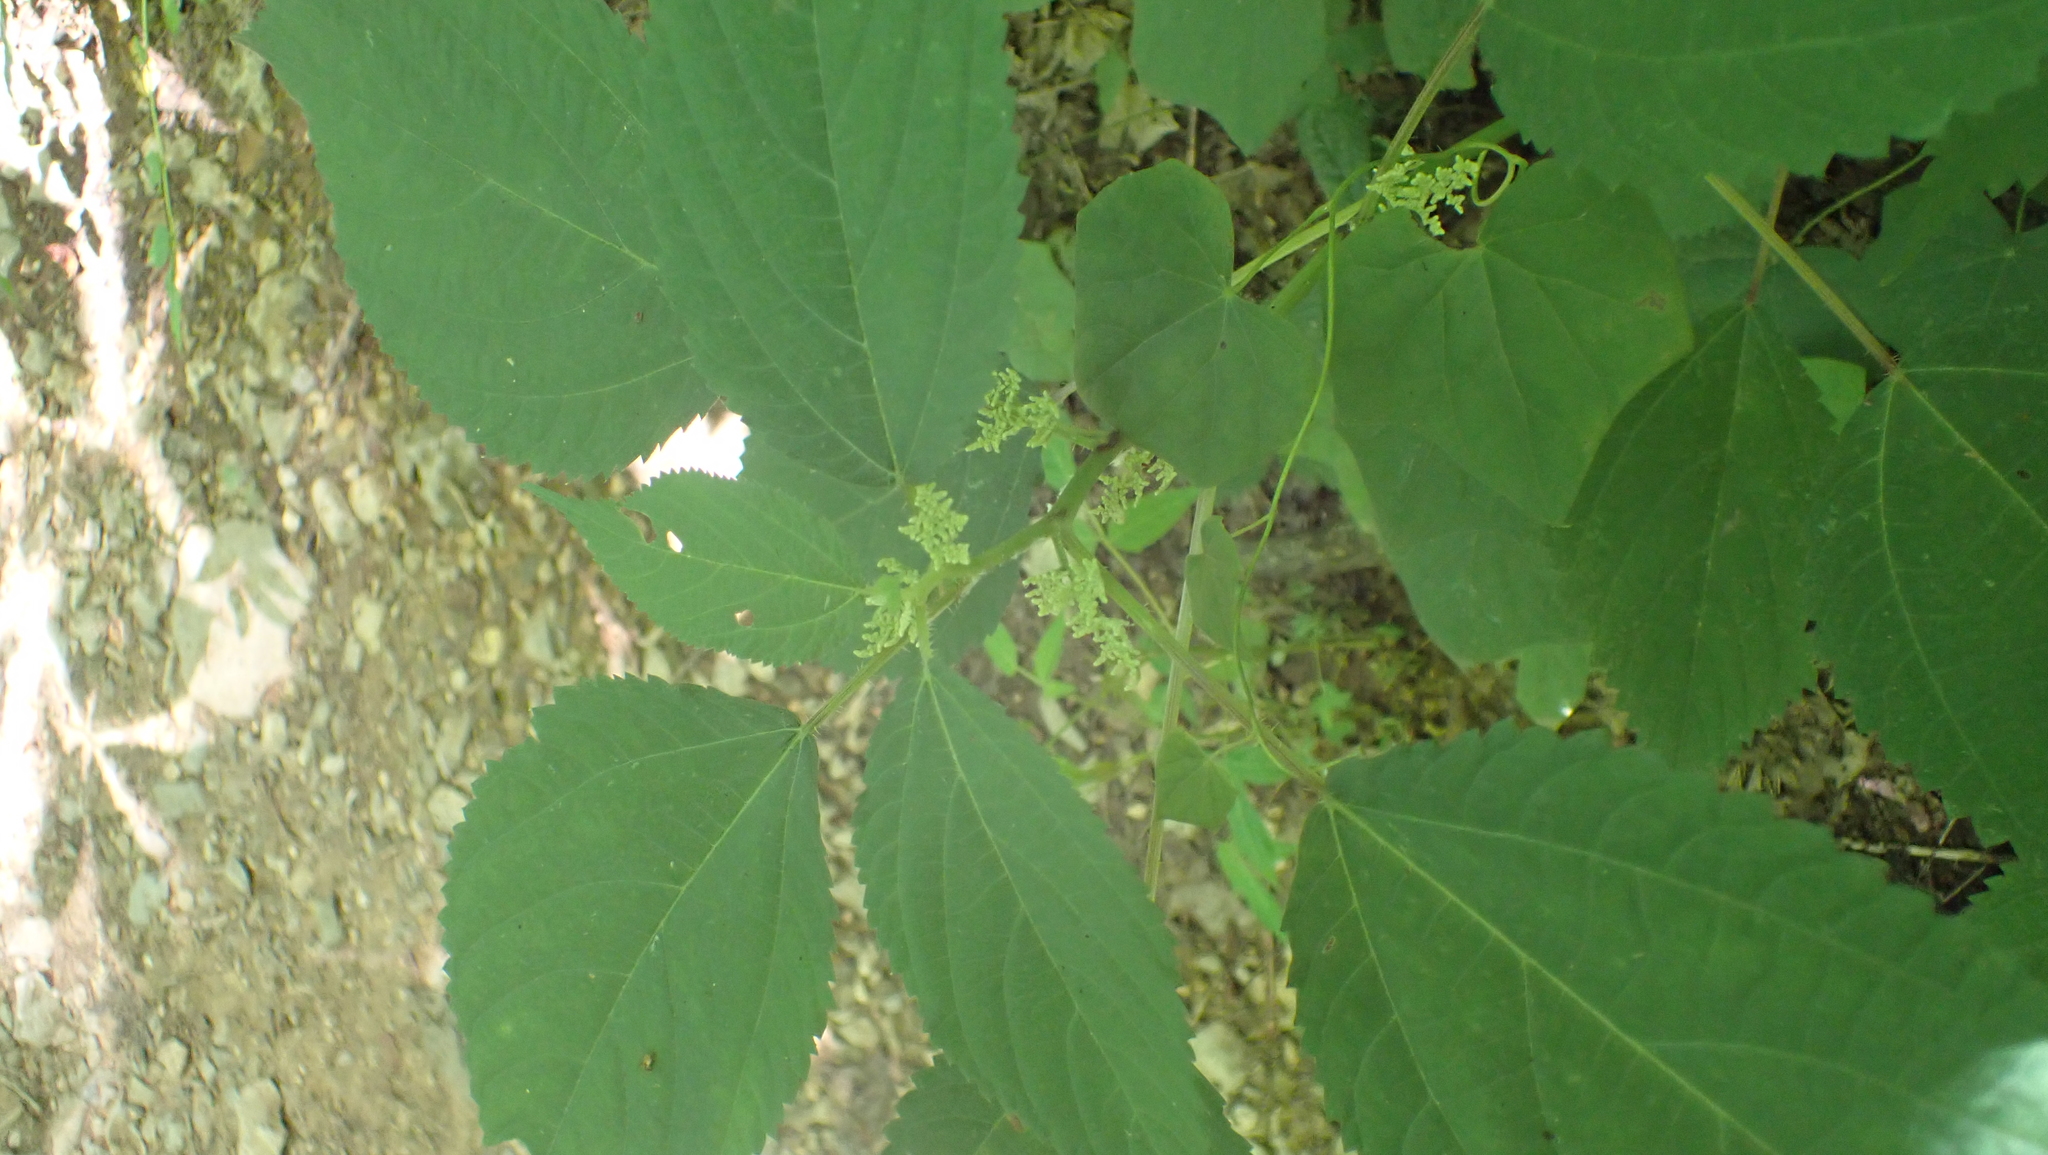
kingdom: Plantae
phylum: Tracheophyta
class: Magnoliopsida
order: Rosales
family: Urticaceae
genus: Laportea
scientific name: Laportea canadensis
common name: Canada nettle
